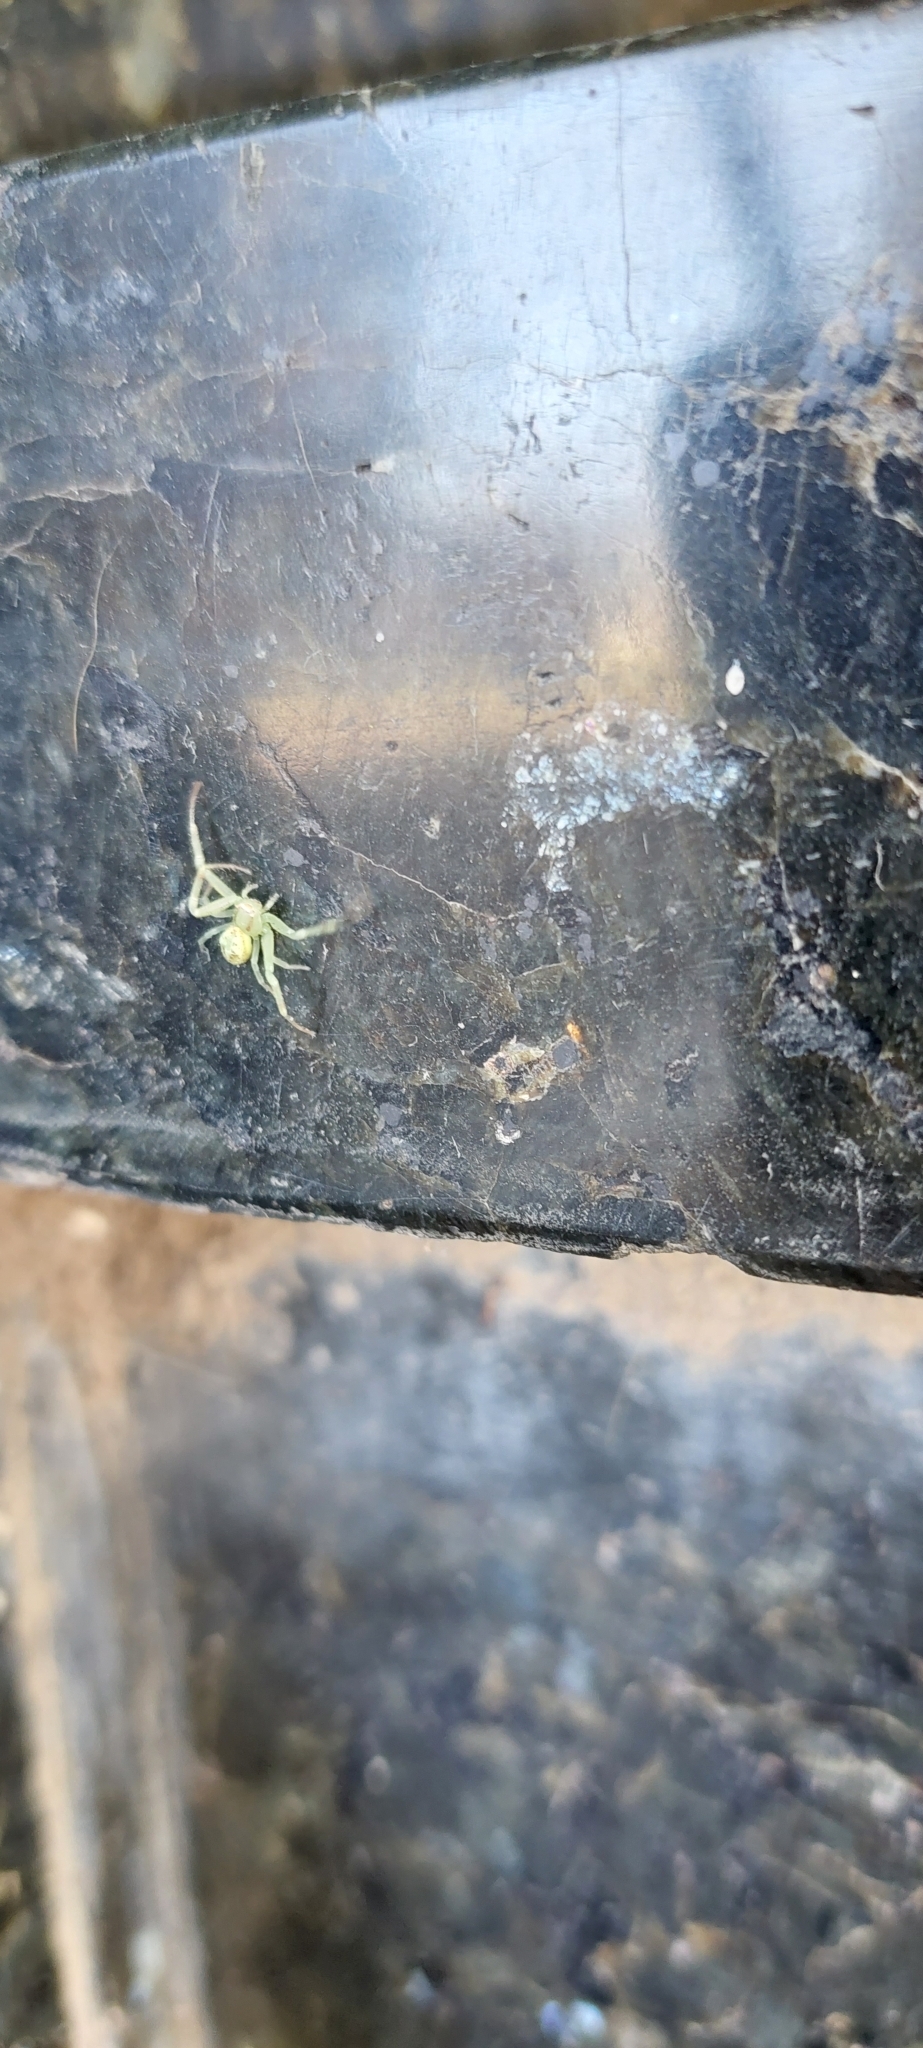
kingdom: Animalia
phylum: Arthropoda
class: Arachnida
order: Araneae
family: Thomisidae
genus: Misumenops
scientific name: Misumenops
